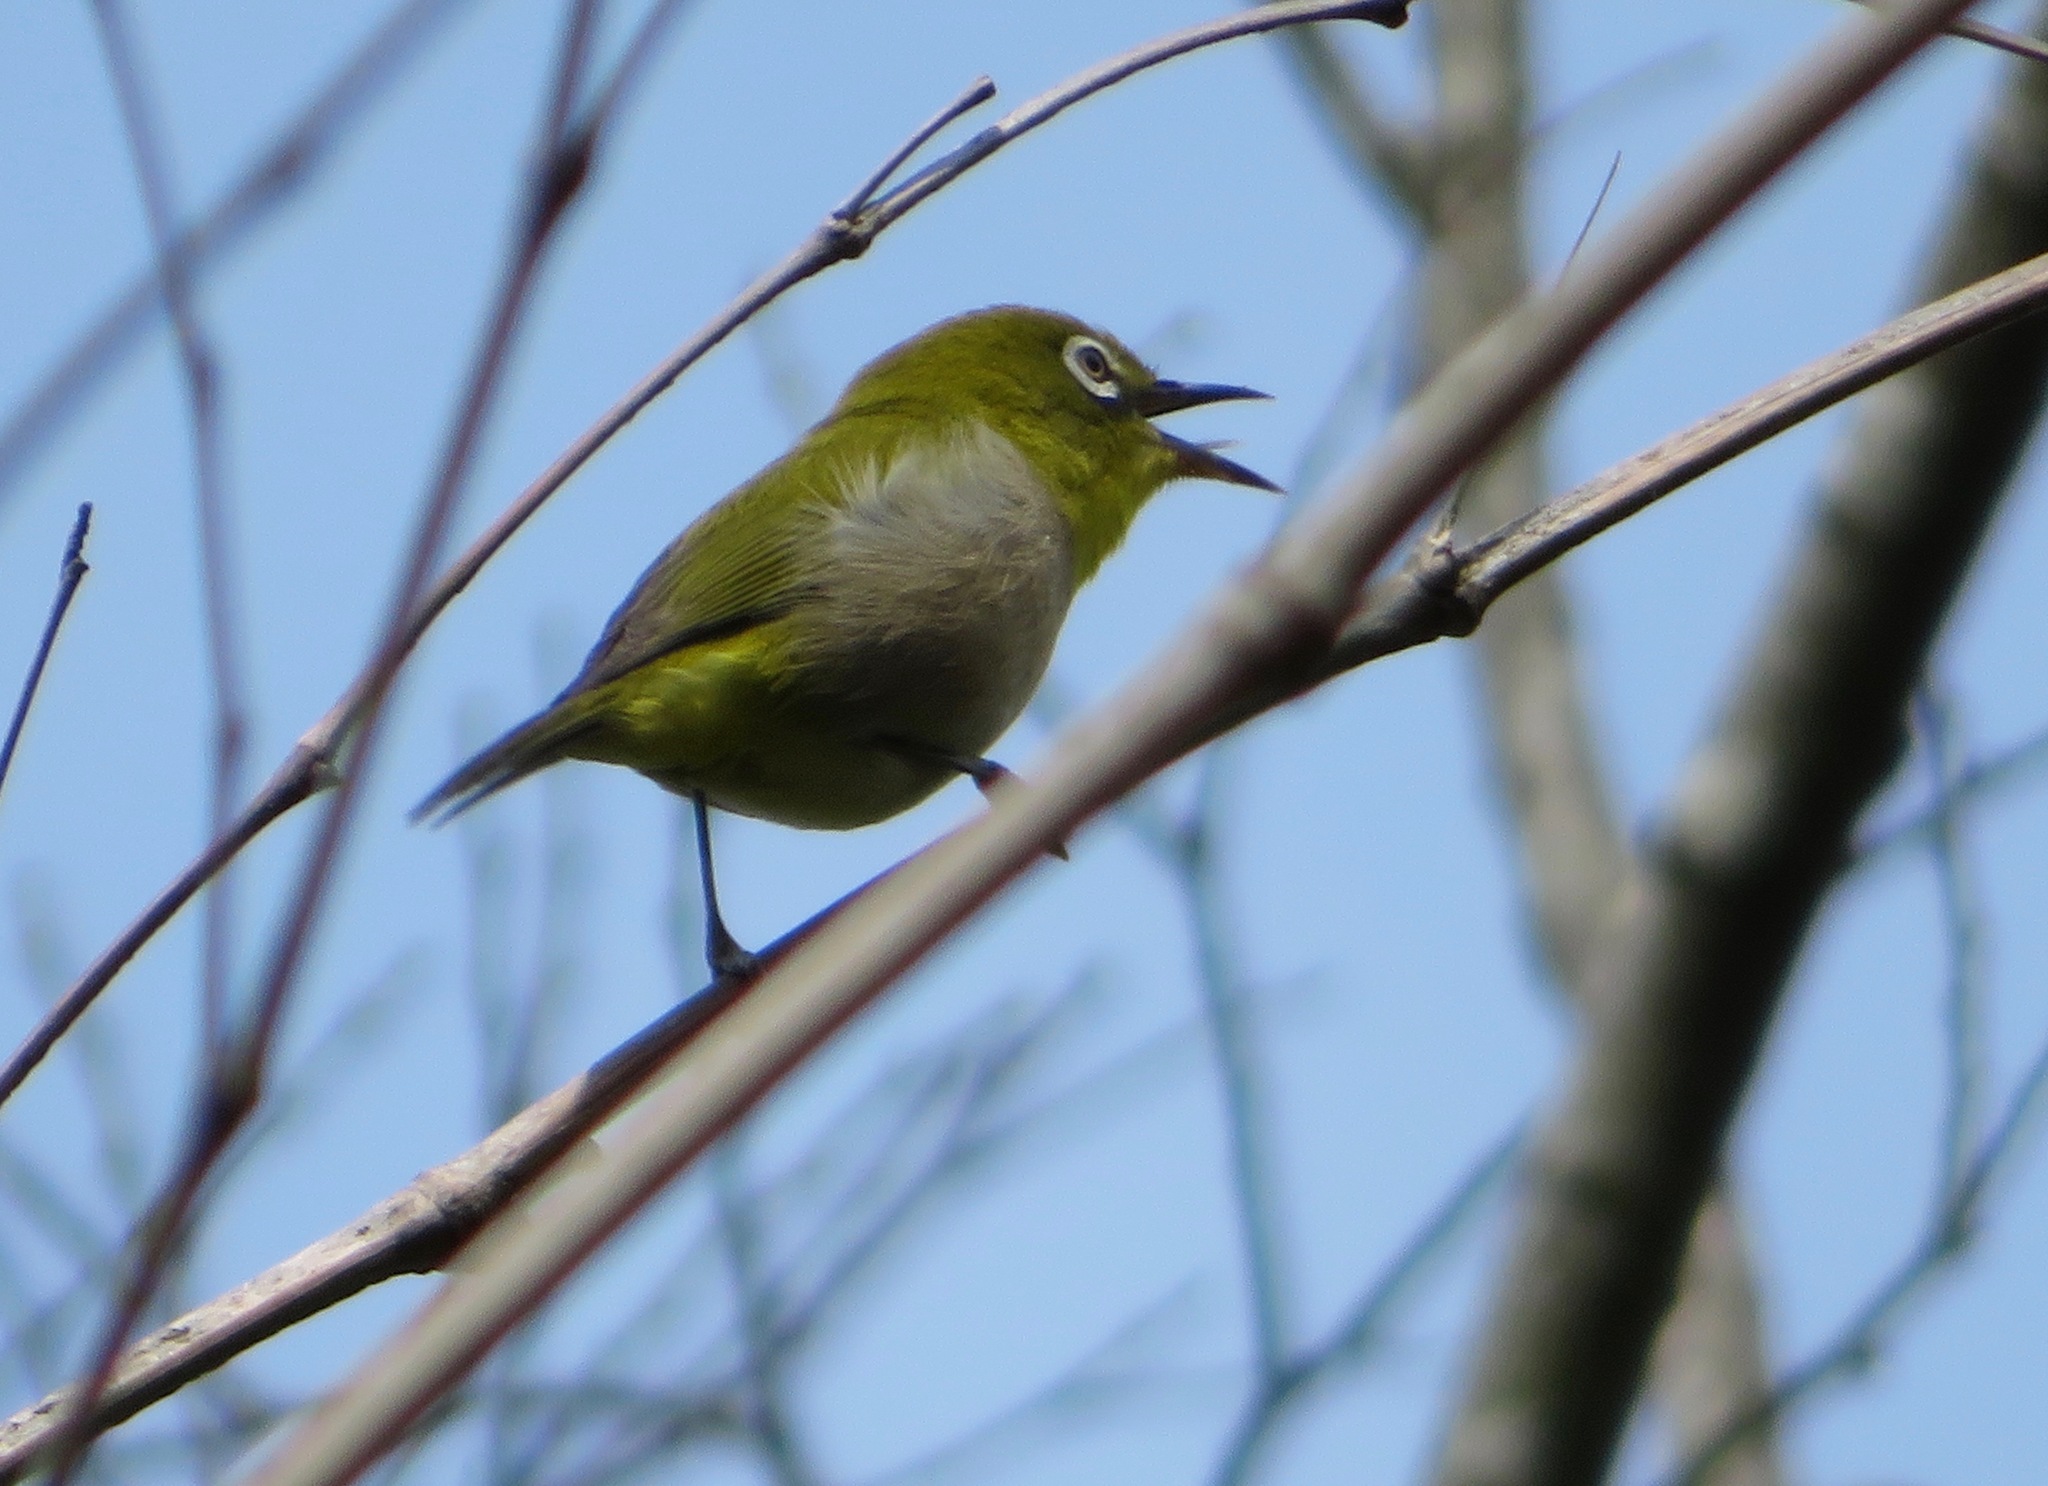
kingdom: Animalia
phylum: Chordata
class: Aves
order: Passeriformes
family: Zosteropidae
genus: Zosterops
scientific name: Zosterops japonicus
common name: Japanese white-eye
